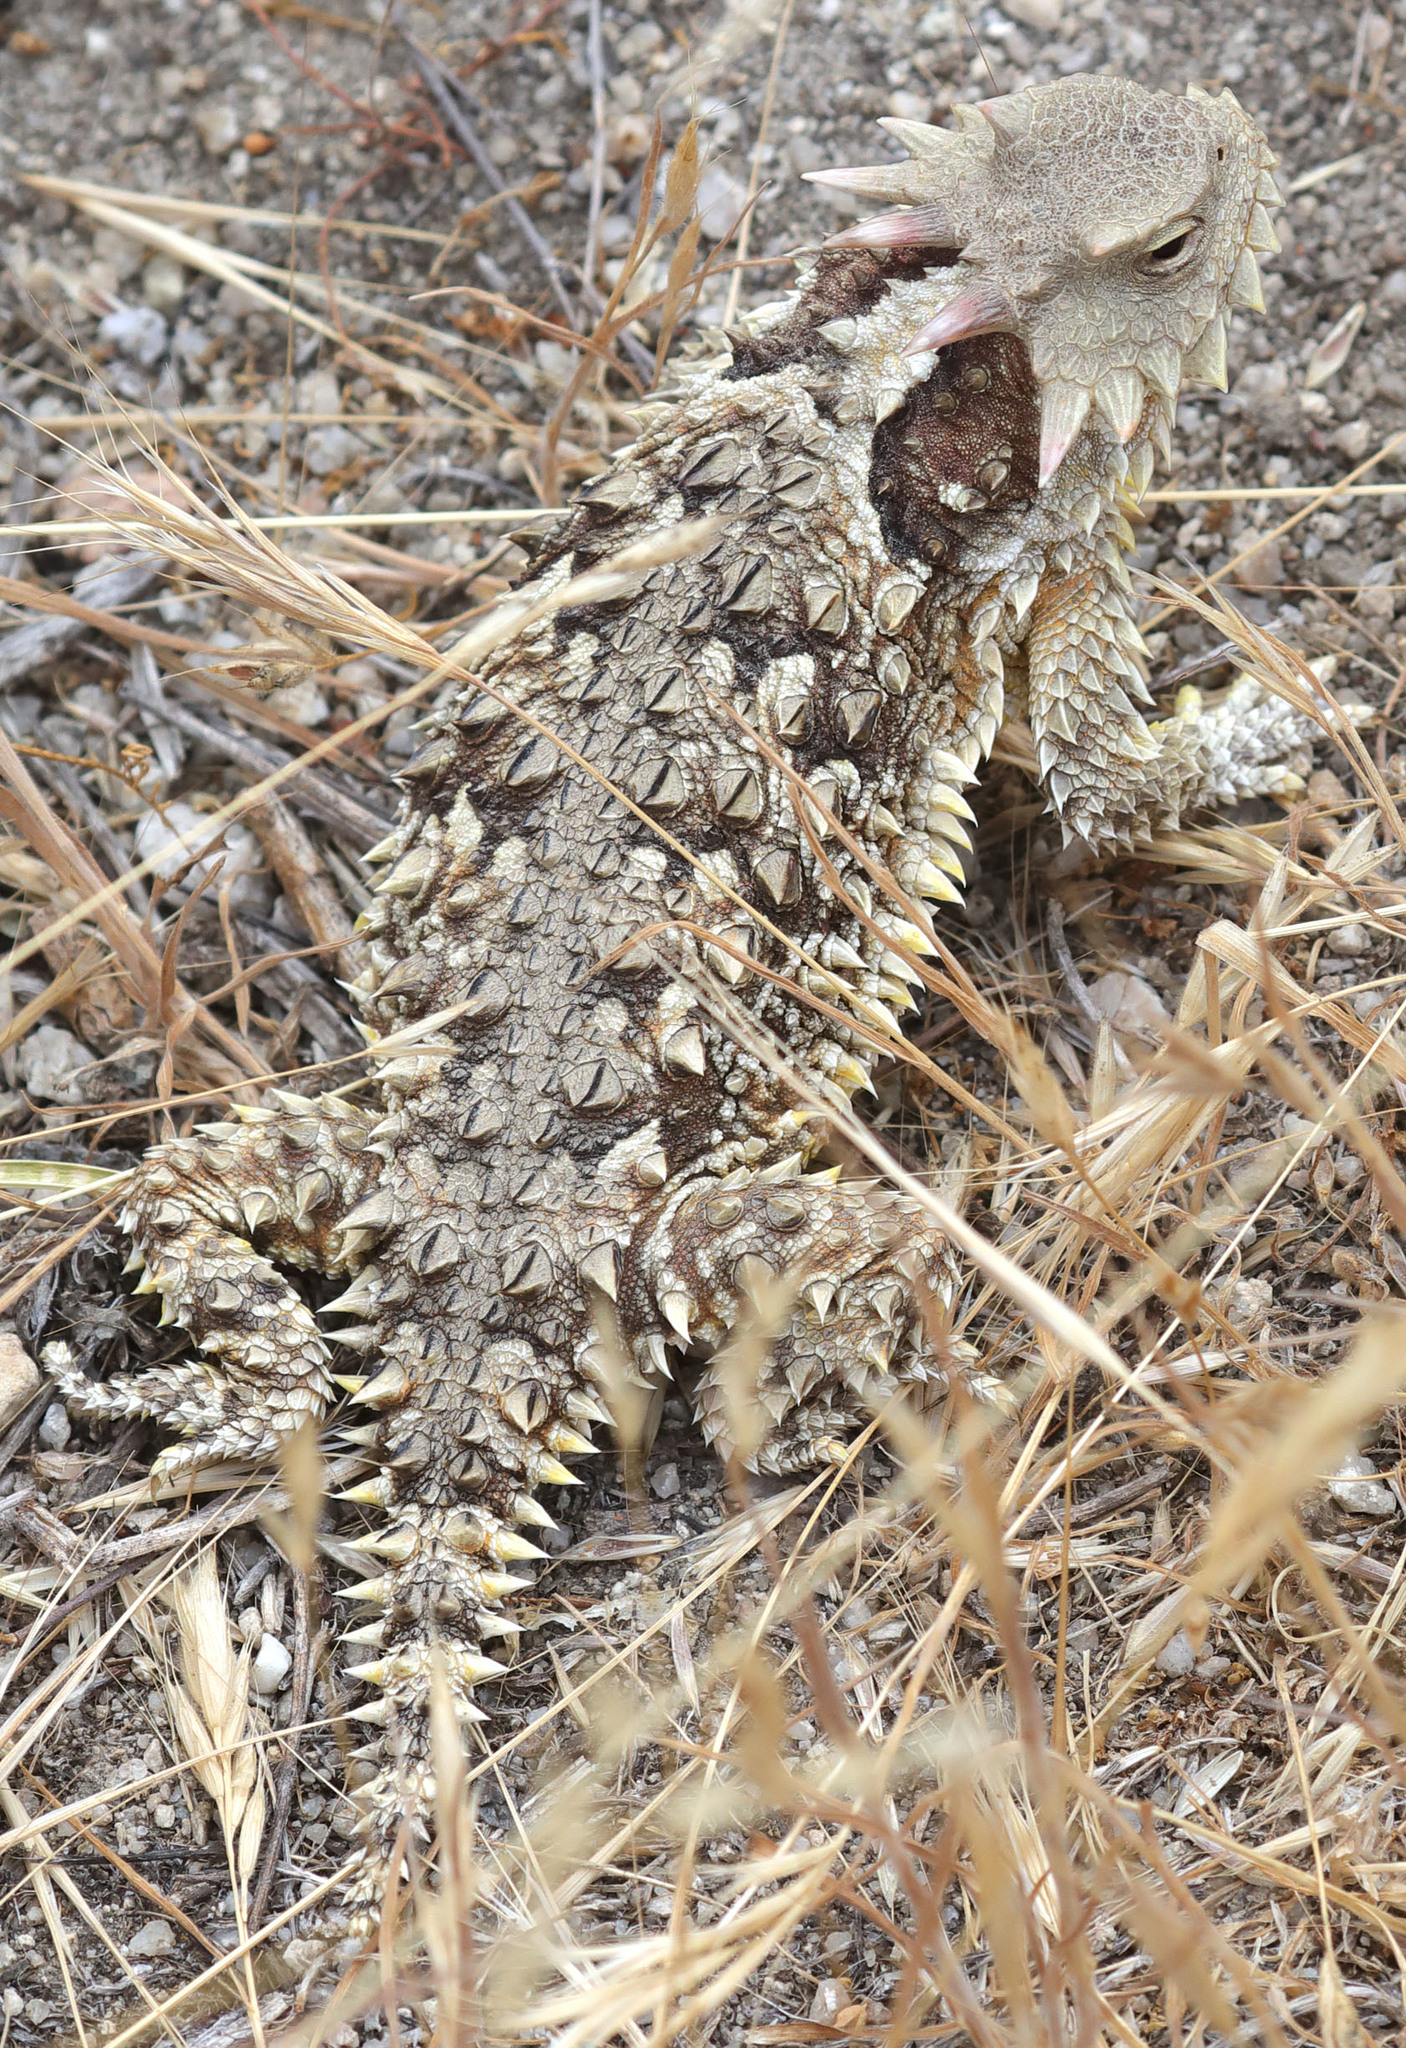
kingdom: Animalia
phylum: Chordata
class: Squamata
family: Phrynosomatidae
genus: Phrynosoma
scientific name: Phrynosoma blainvillii
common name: San diego horned lizard
